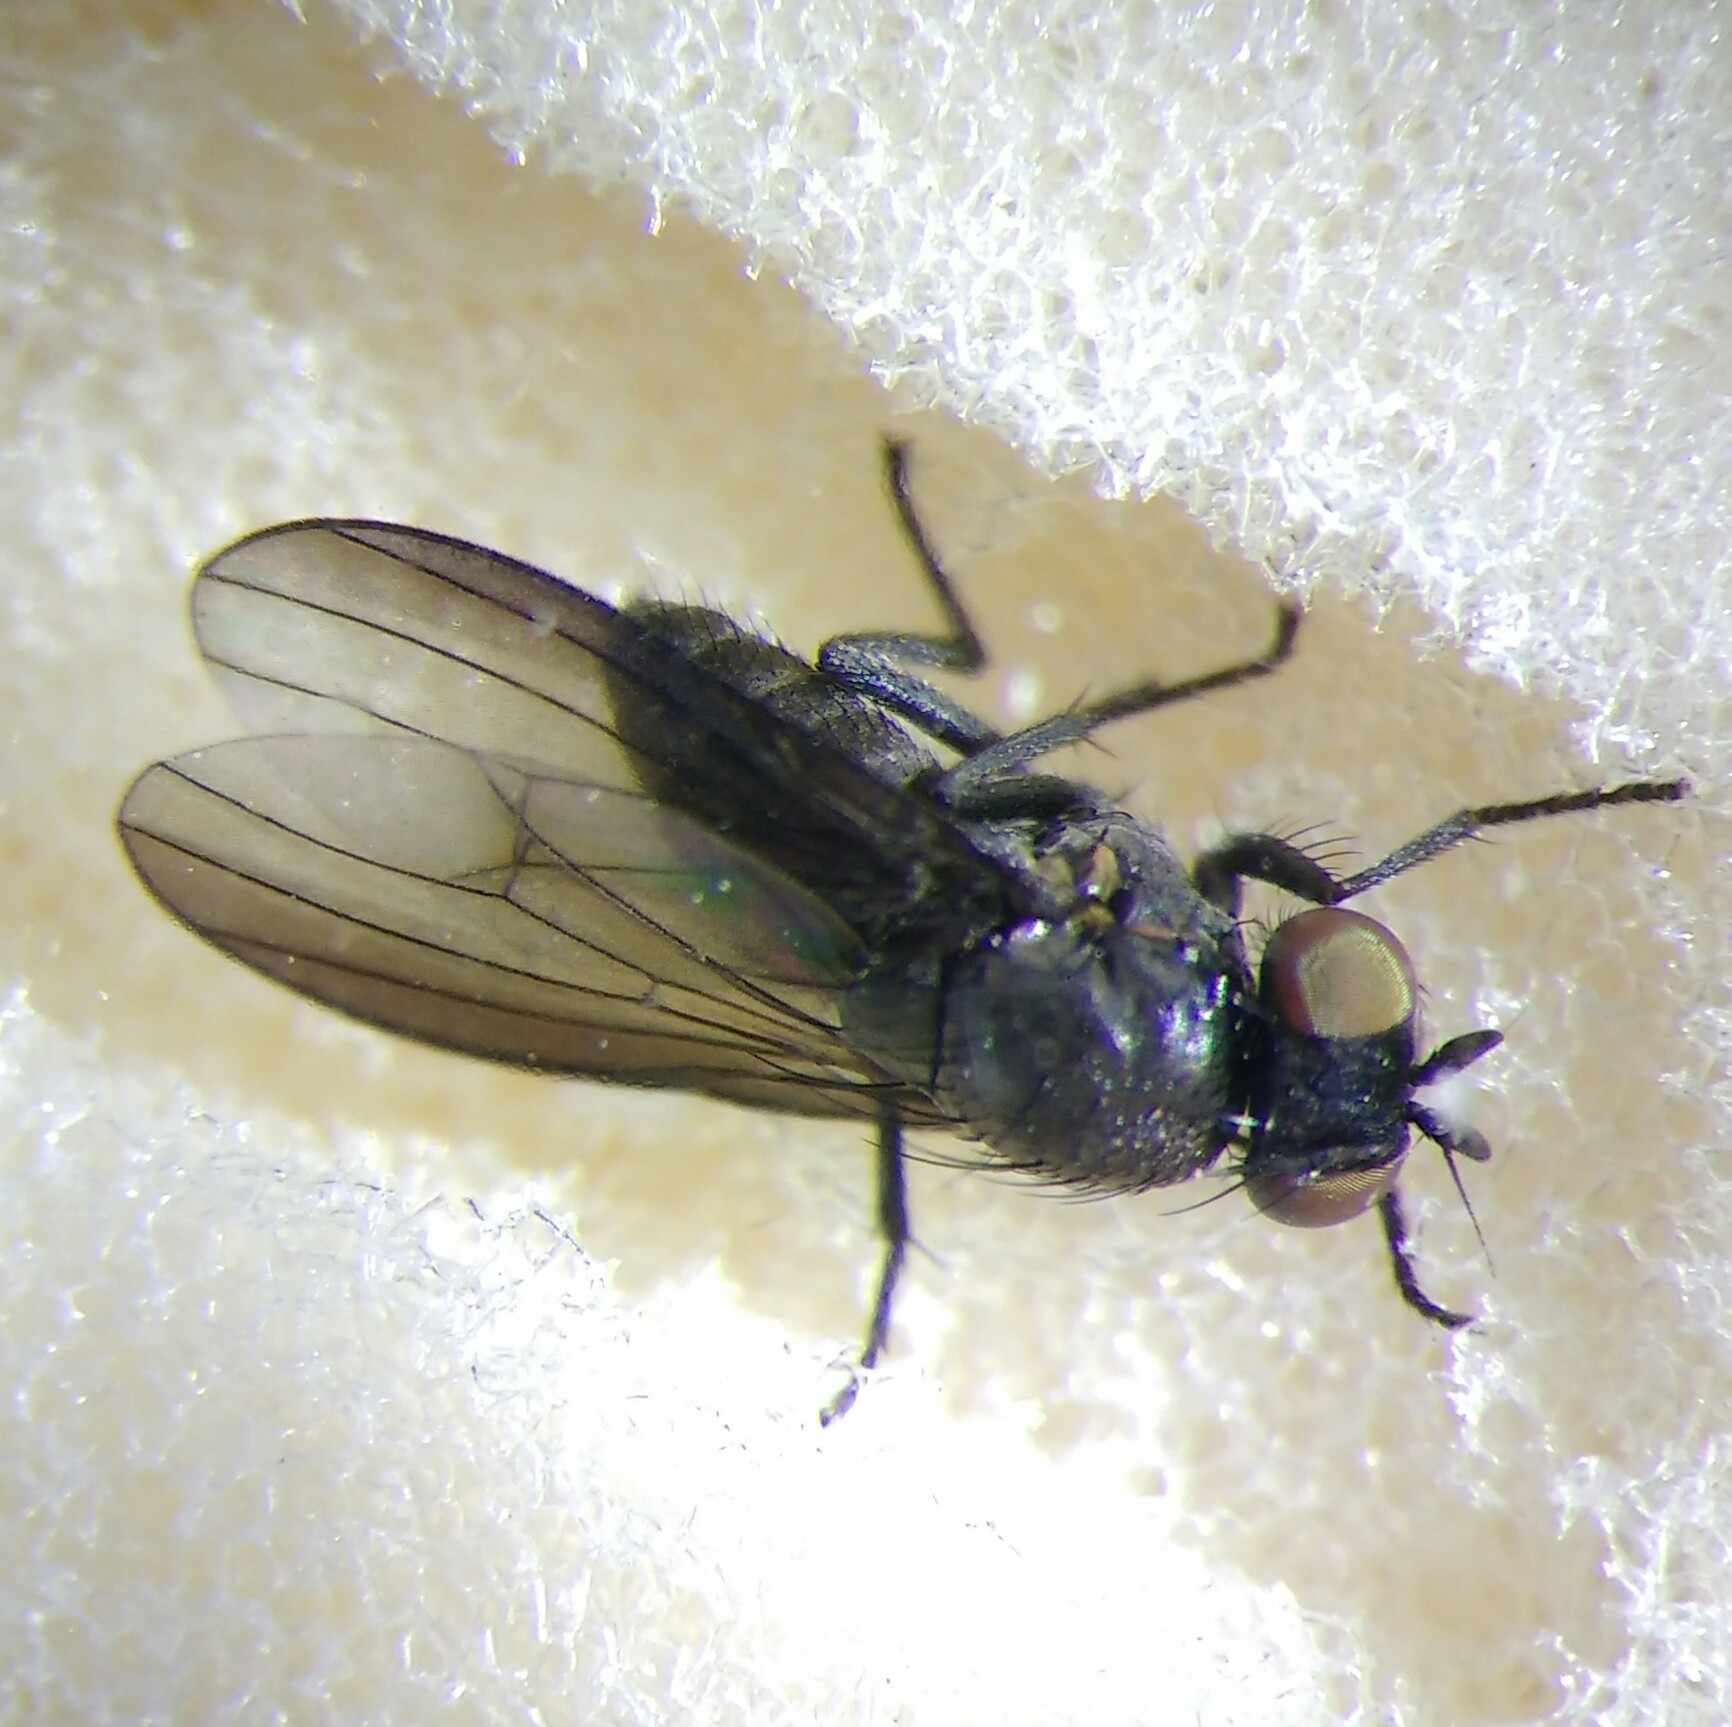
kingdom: Animalia
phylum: Arthropoda
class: Insecta
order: Diptera
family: Lauxaniidae
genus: Cnemacantha
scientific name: Cnemacantha muscaria
